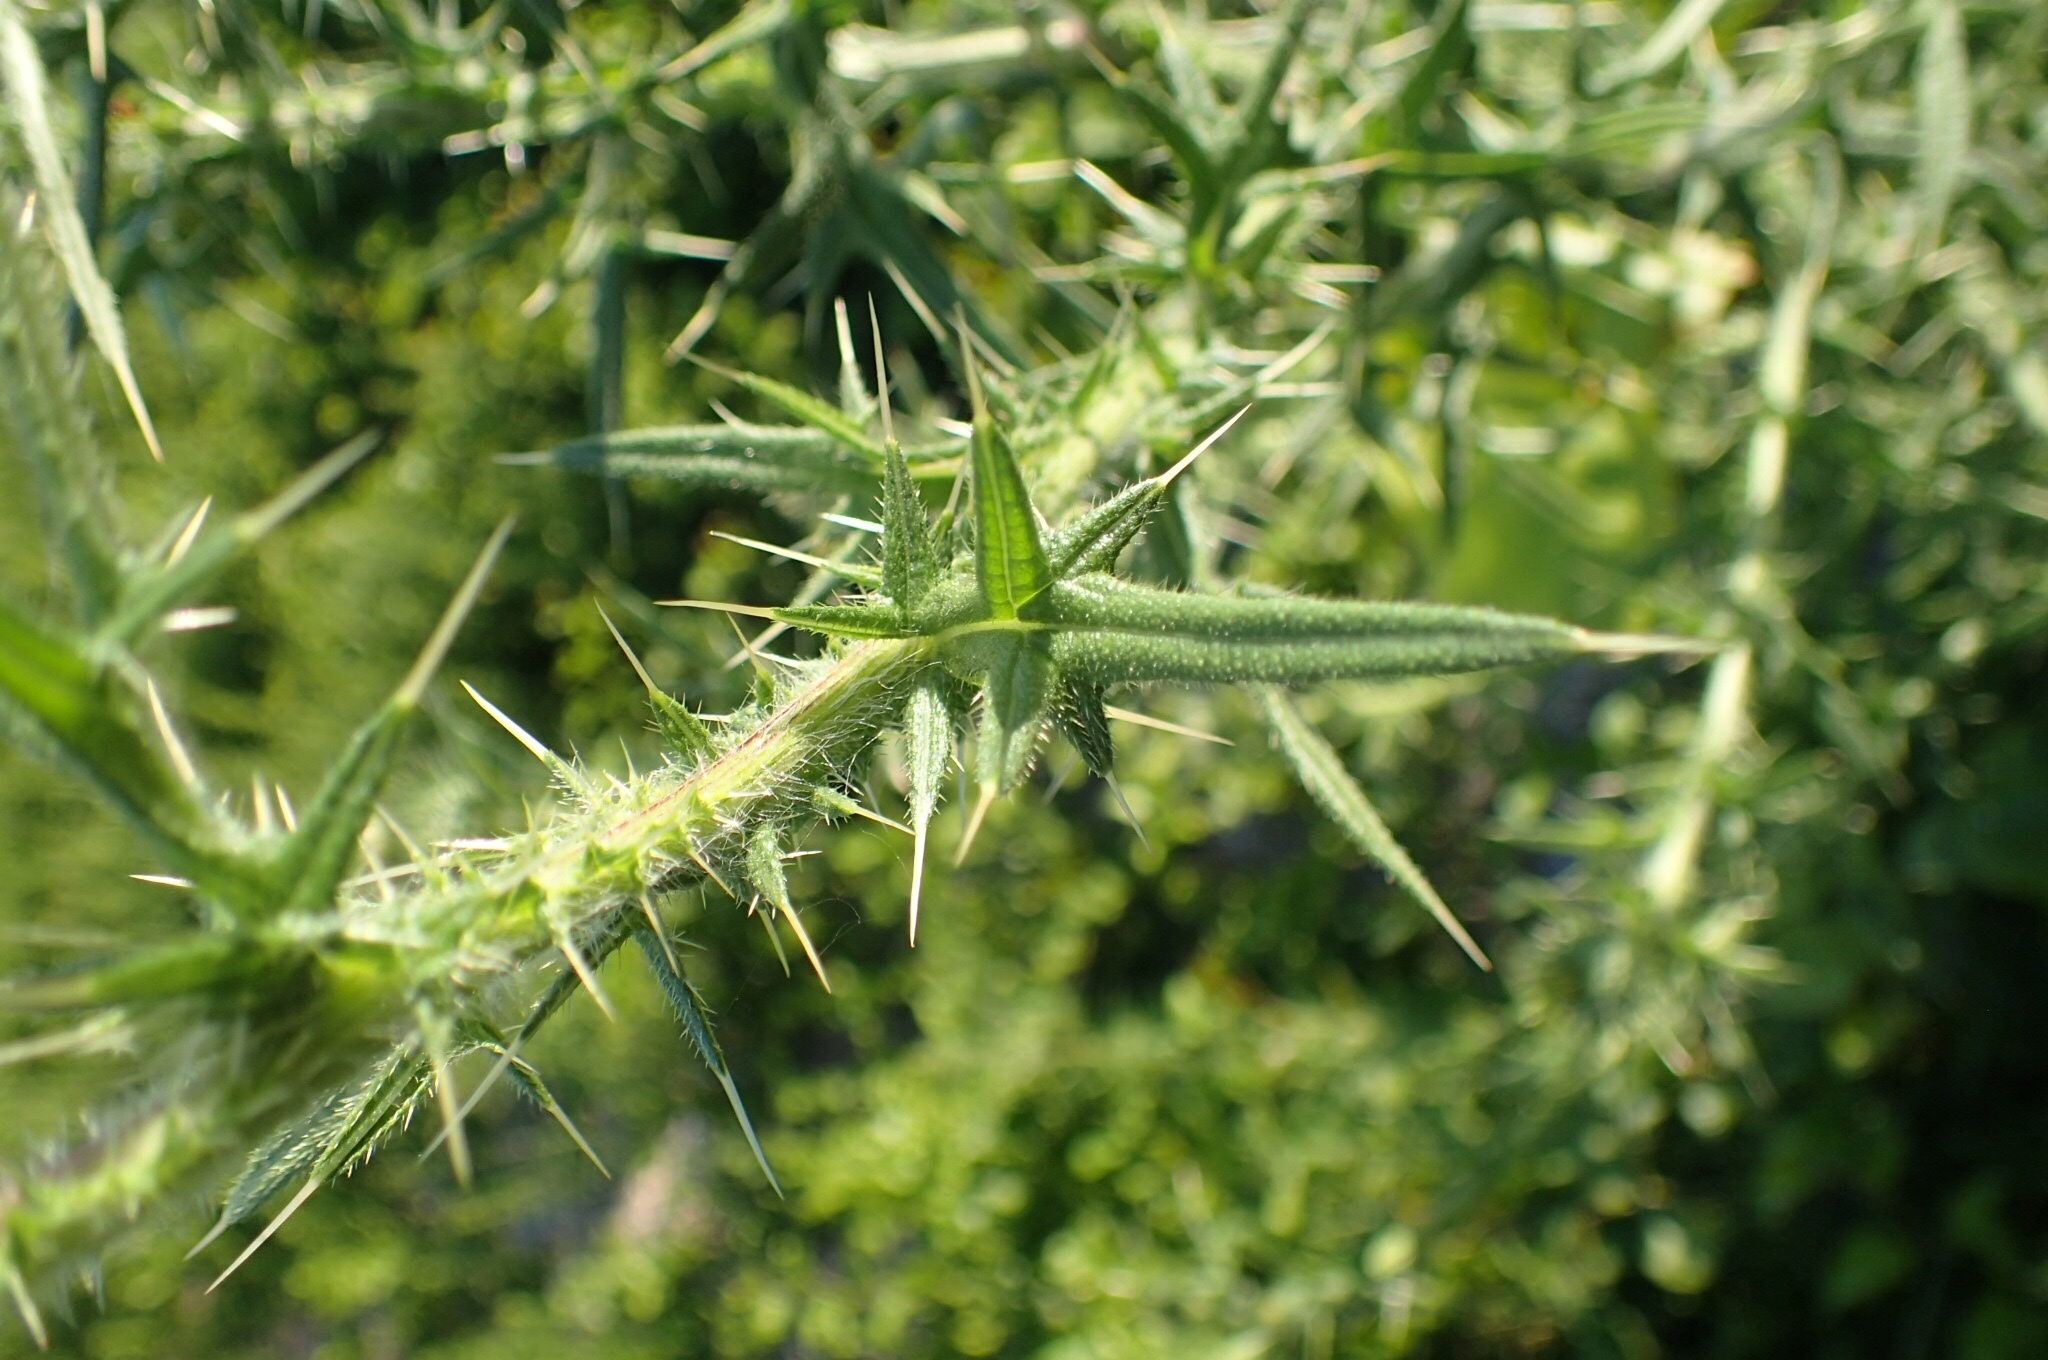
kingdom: Plantae
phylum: Tracheophyta
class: Magnoliopsida
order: Asterales
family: Asteraceae
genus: Cirsium
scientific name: Cirsium vulgare
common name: Bull thistle
